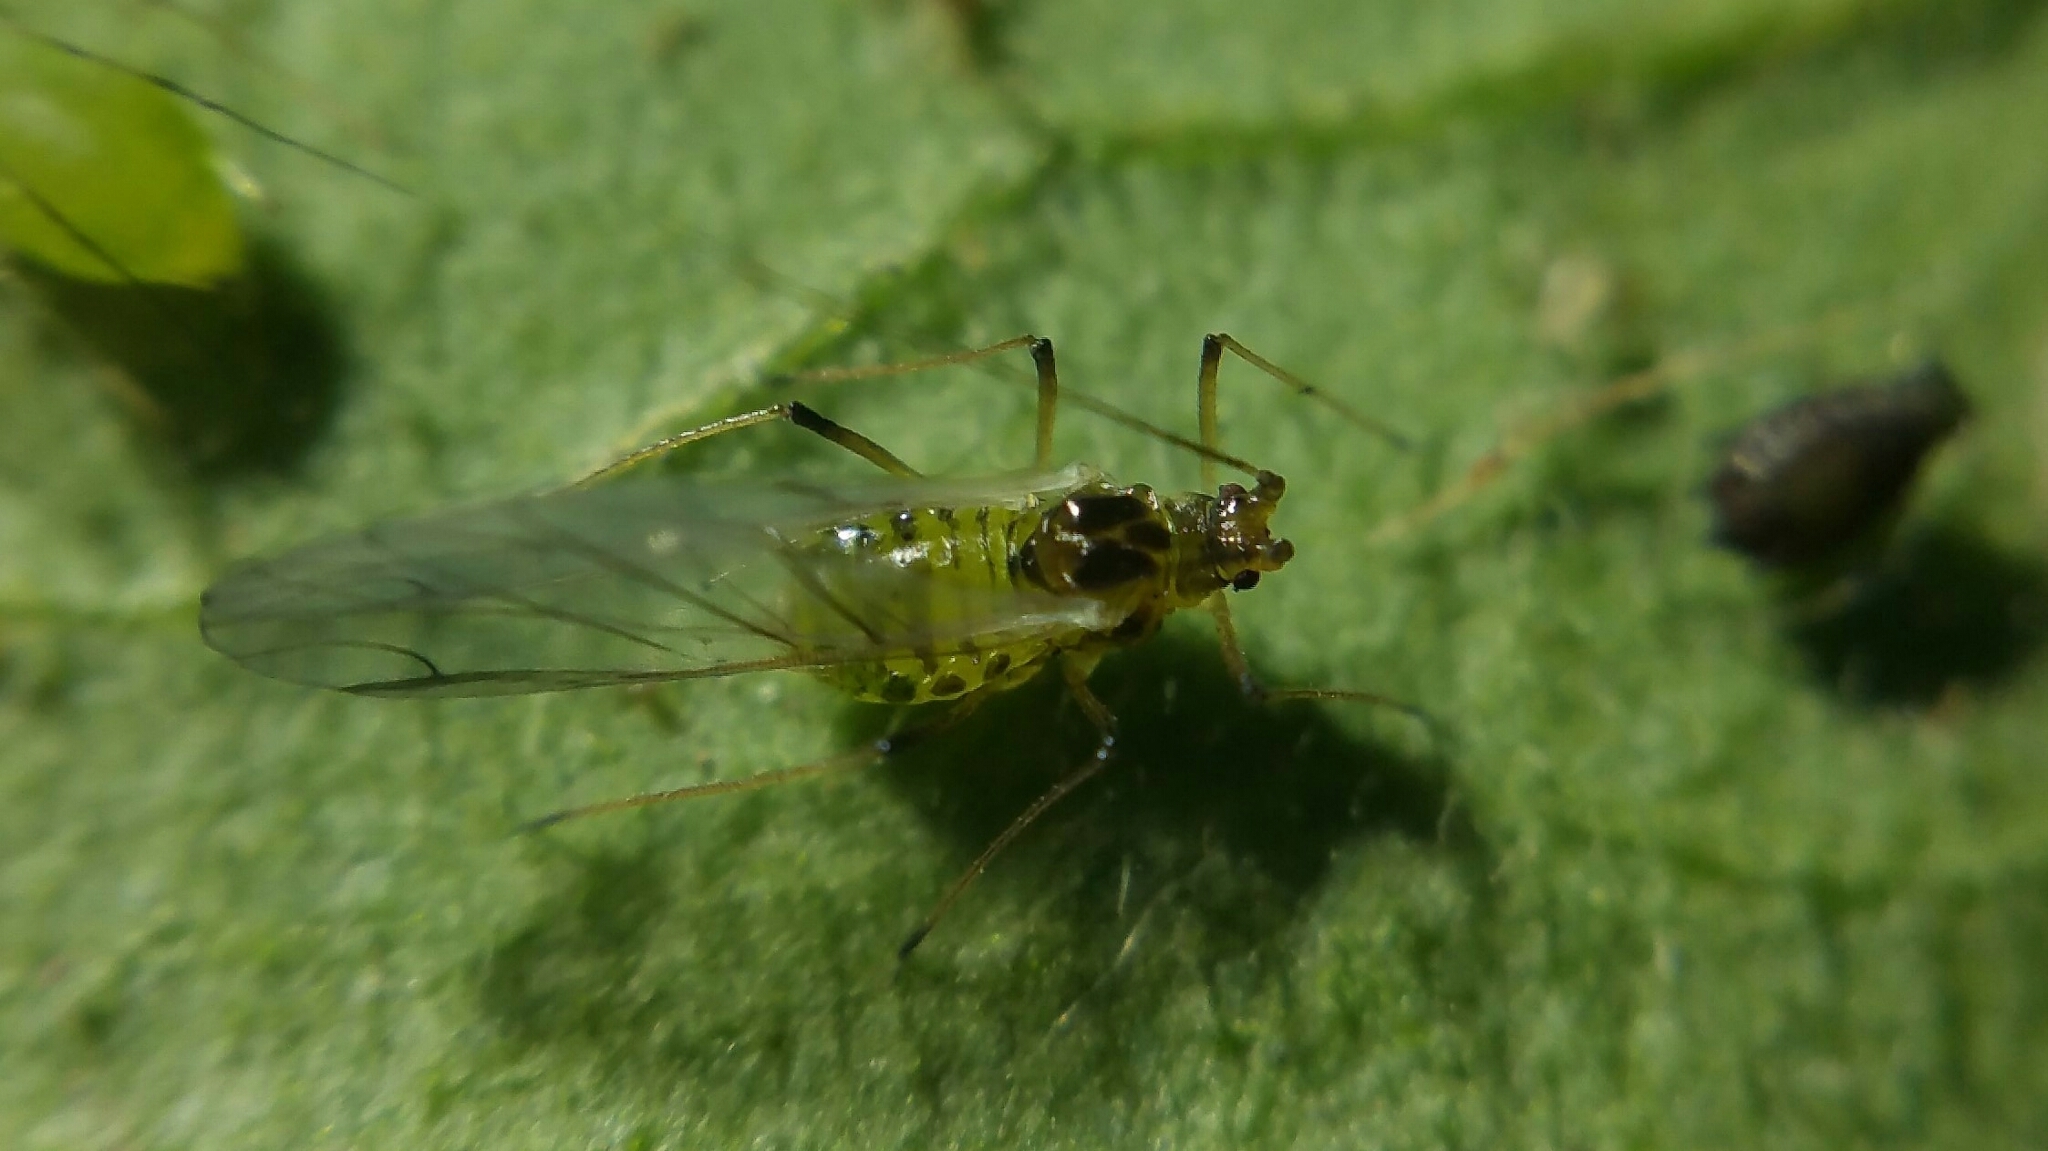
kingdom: Animalia
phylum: Arthropoda
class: Insecta
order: Hemiptera
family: Aphididae
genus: Aulacorthum
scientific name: Aulacorthum solani
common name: Foxglove aphid
